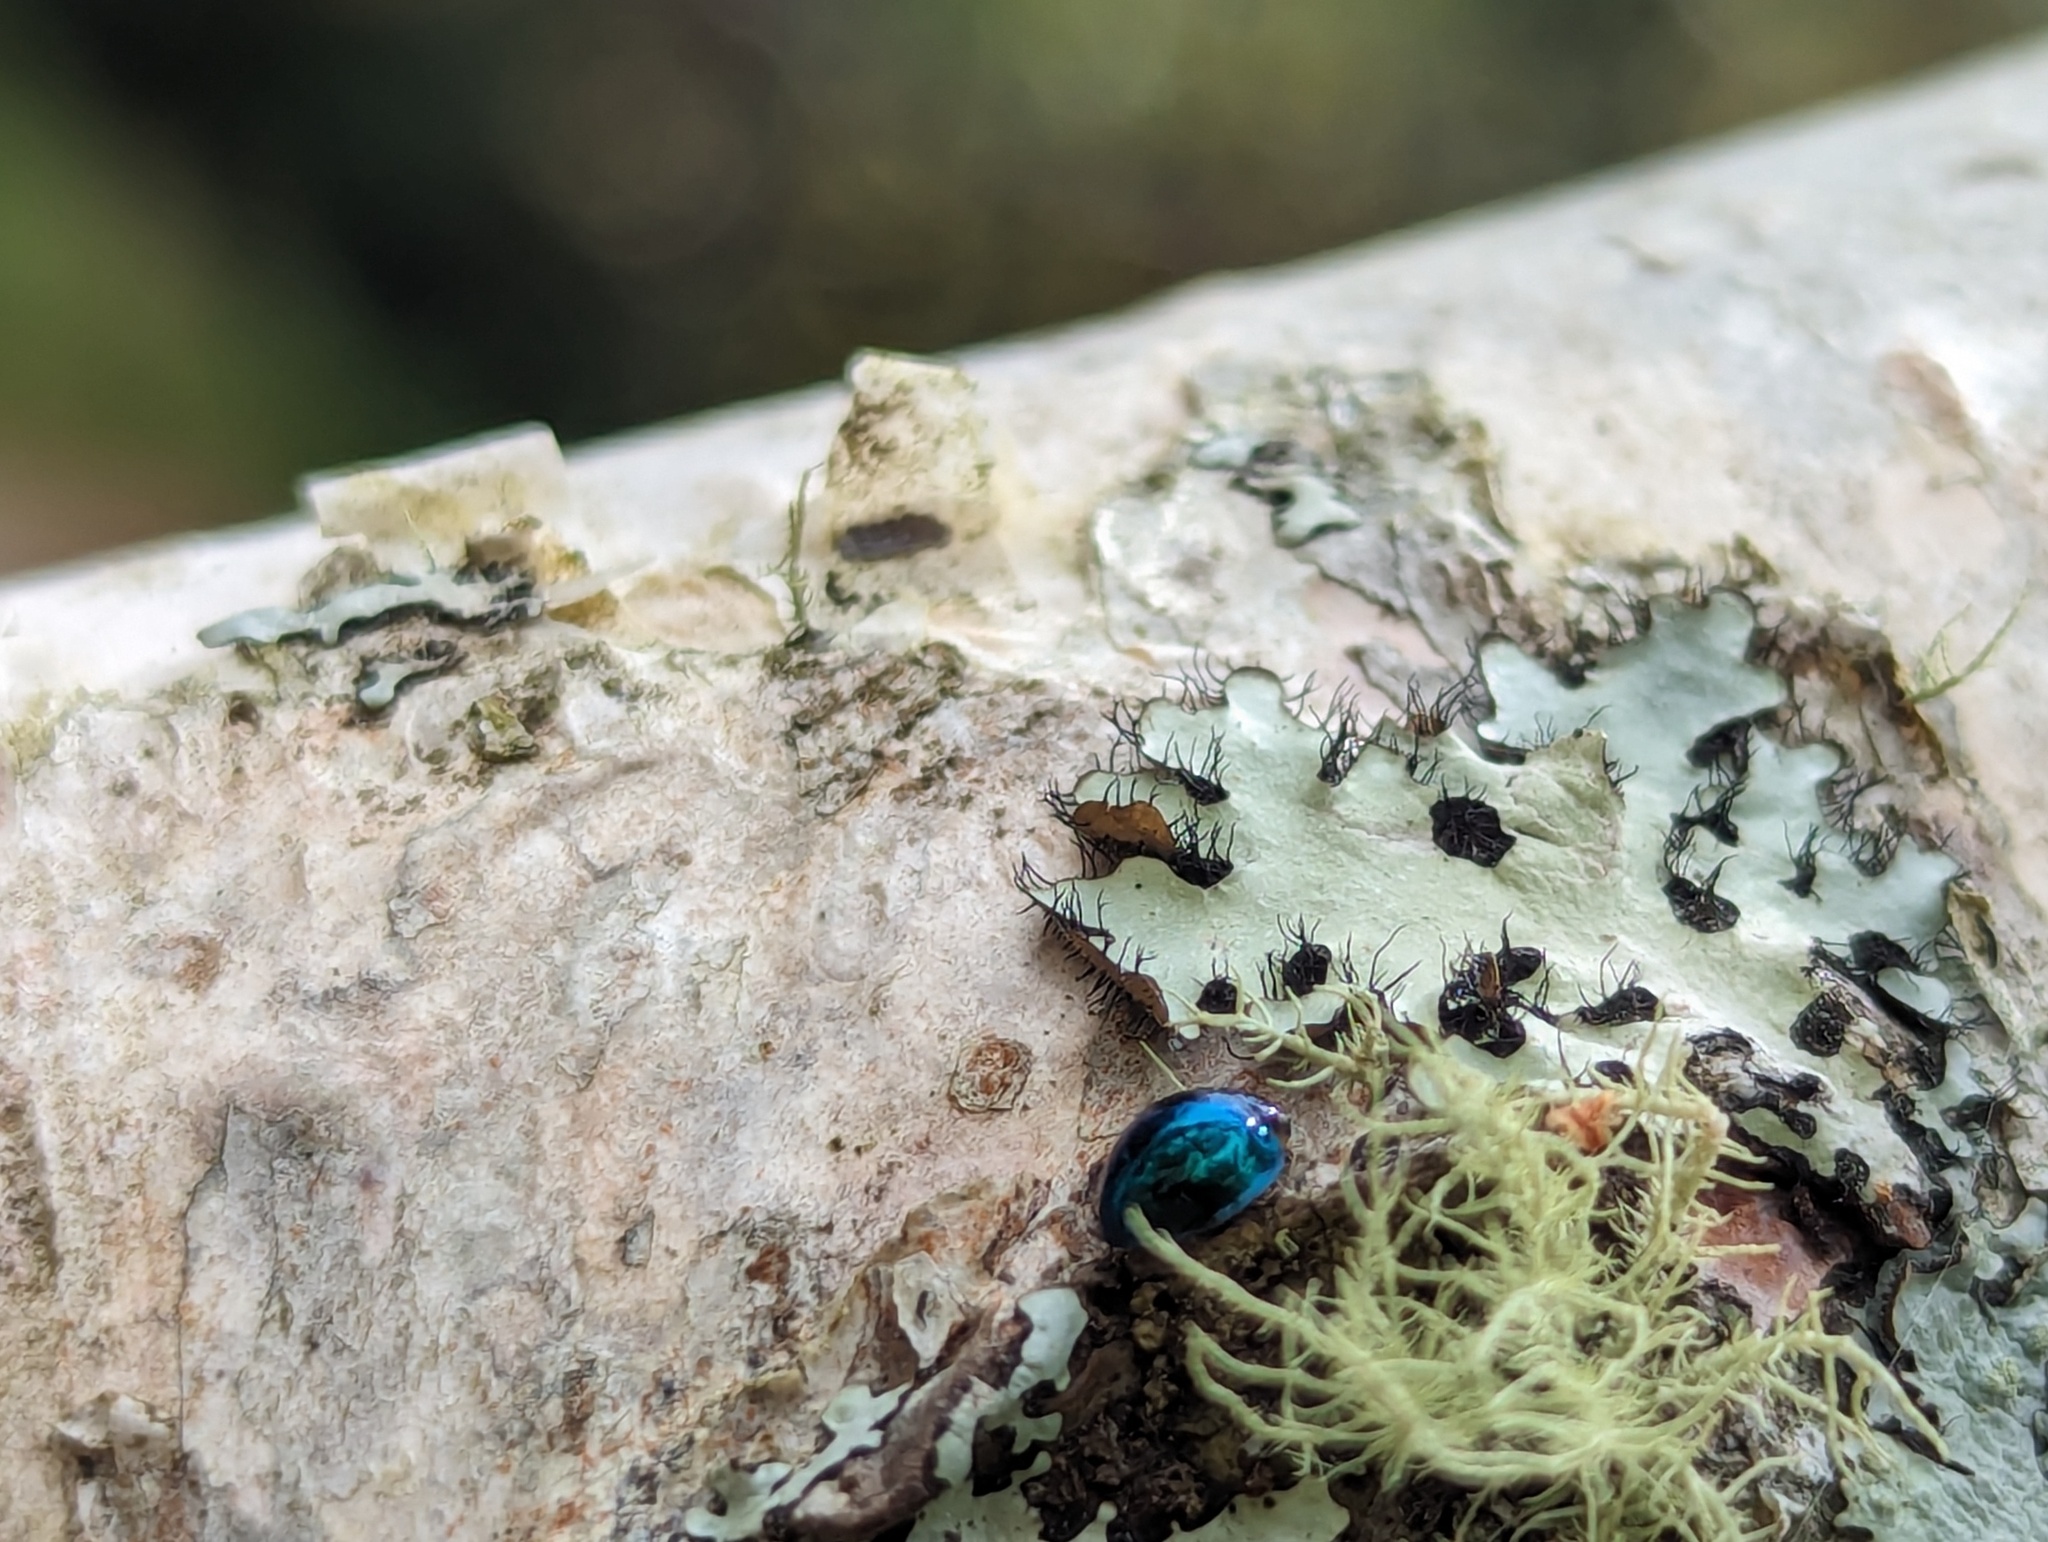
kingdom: Animalia
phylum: Arthropoda
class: Insecta
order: Coleoptera
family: Coccinellidae
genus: Halmus
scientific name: Halmus chalybeus
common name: Steel blue ladybird beetle
